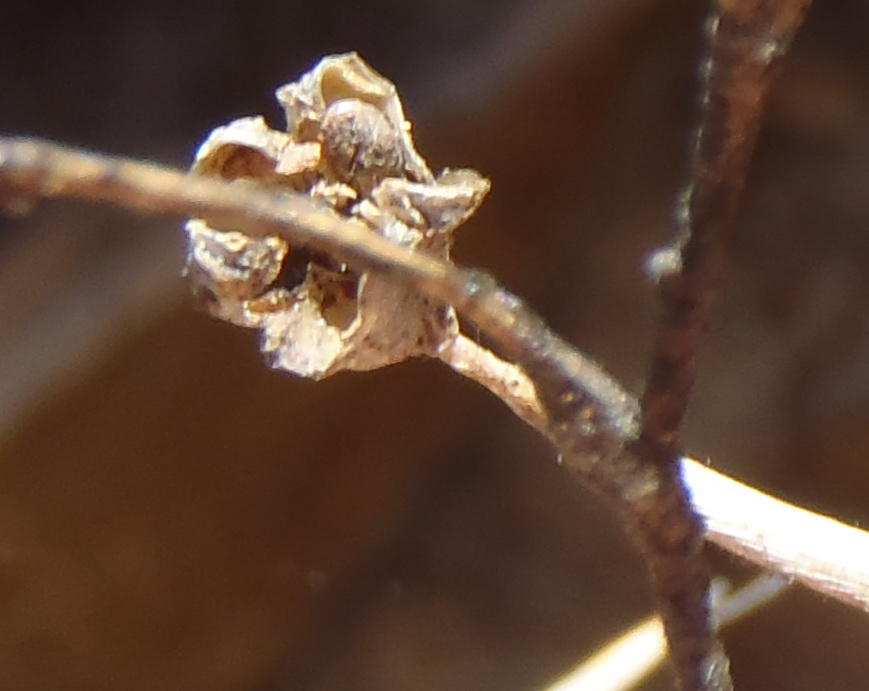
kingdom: Plantae
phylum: Tracheophyta
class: Liliopsida
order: Asparagales
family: Iridaceae
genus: Bobartia
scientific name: Bobartia paniculata
